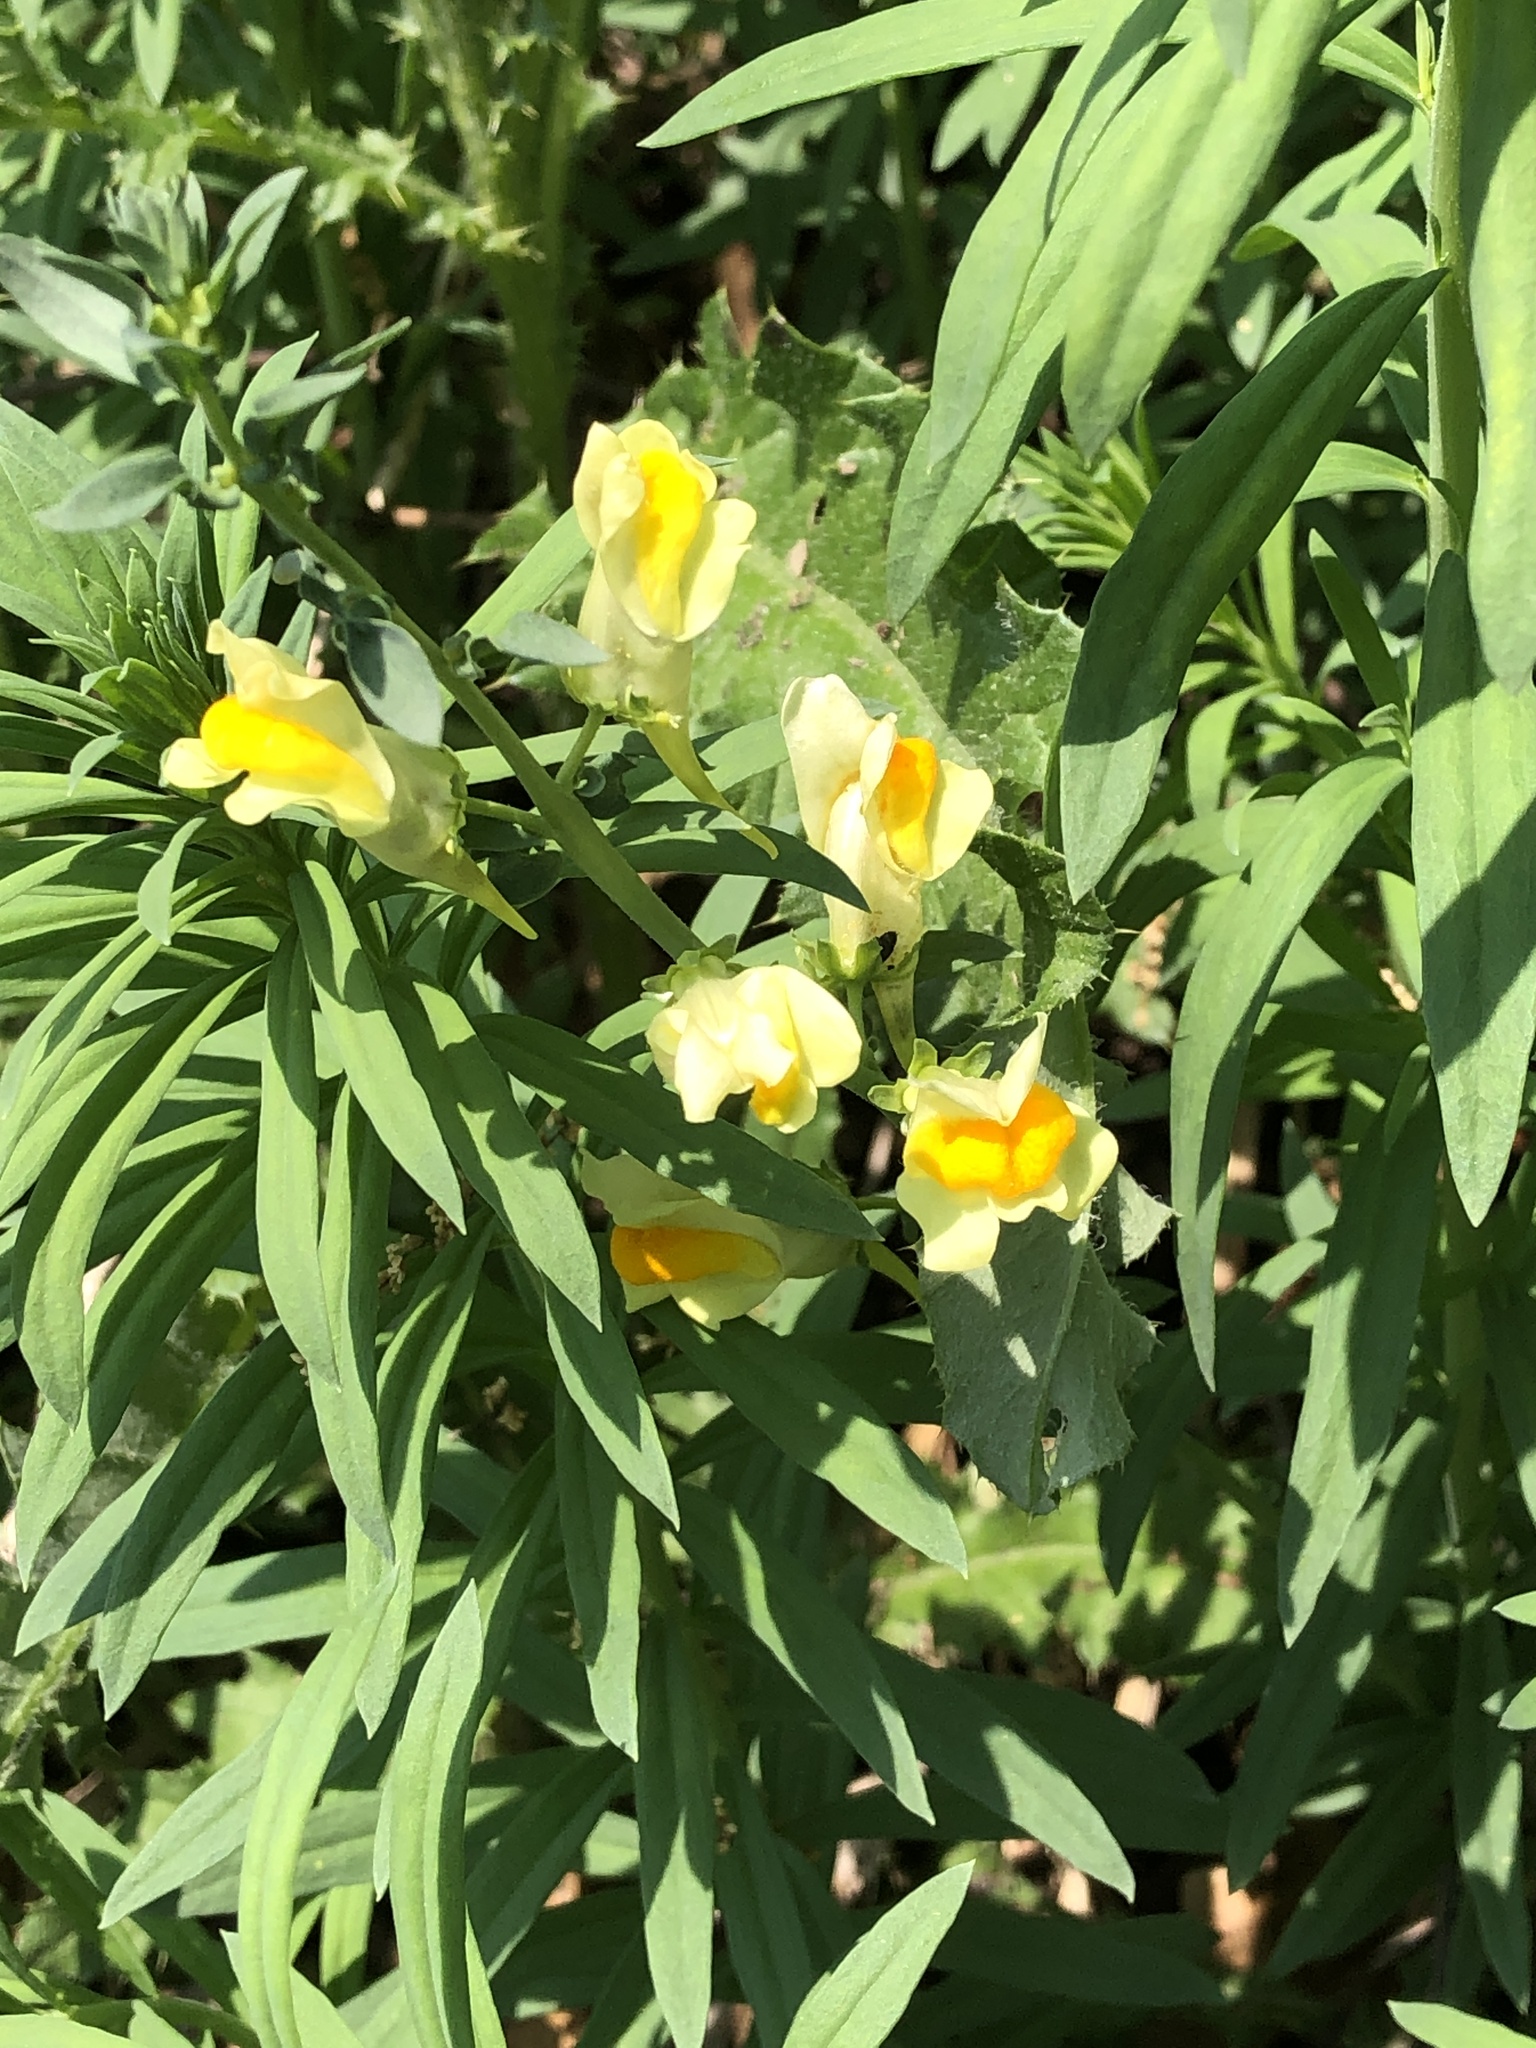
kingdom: Plantae
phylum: Tracheophyta
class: Magnoliopsida
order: Lamiales
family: Plantaginaceae
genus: Linaria
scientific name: Linaria vulgaris
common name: Butter and eggs
